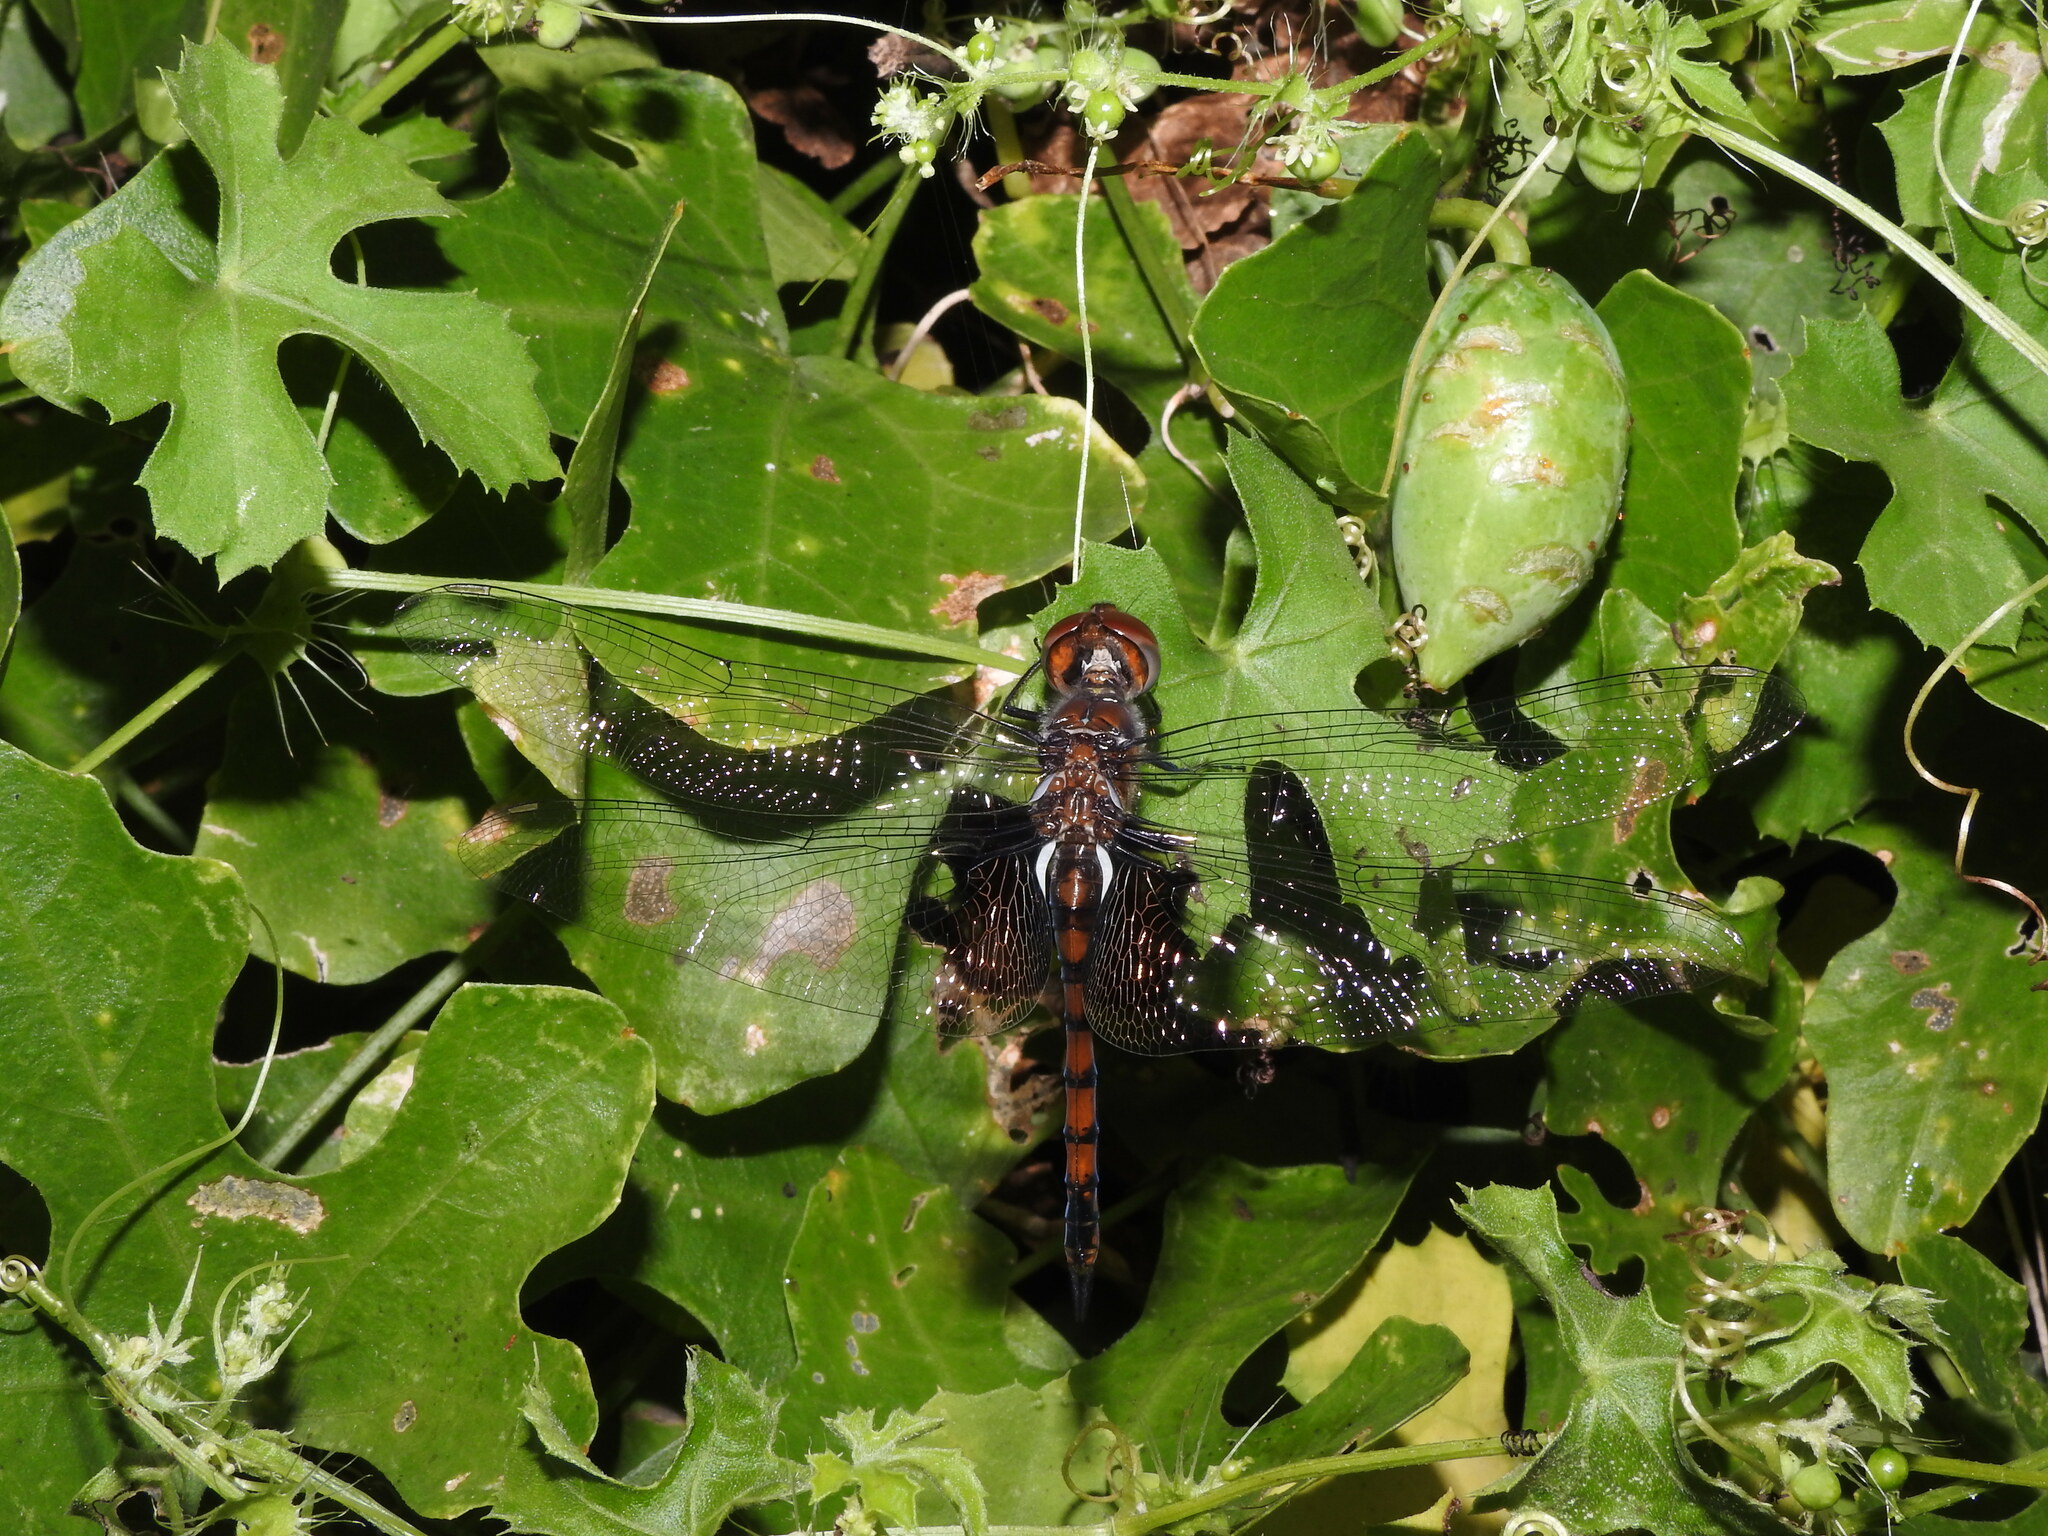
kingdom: Animalia
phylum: Arthropoda
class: Insecta
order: Odonata
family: Libellulidae
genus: Tramea
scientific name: Tramea limbata
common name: Ferruginous glider
